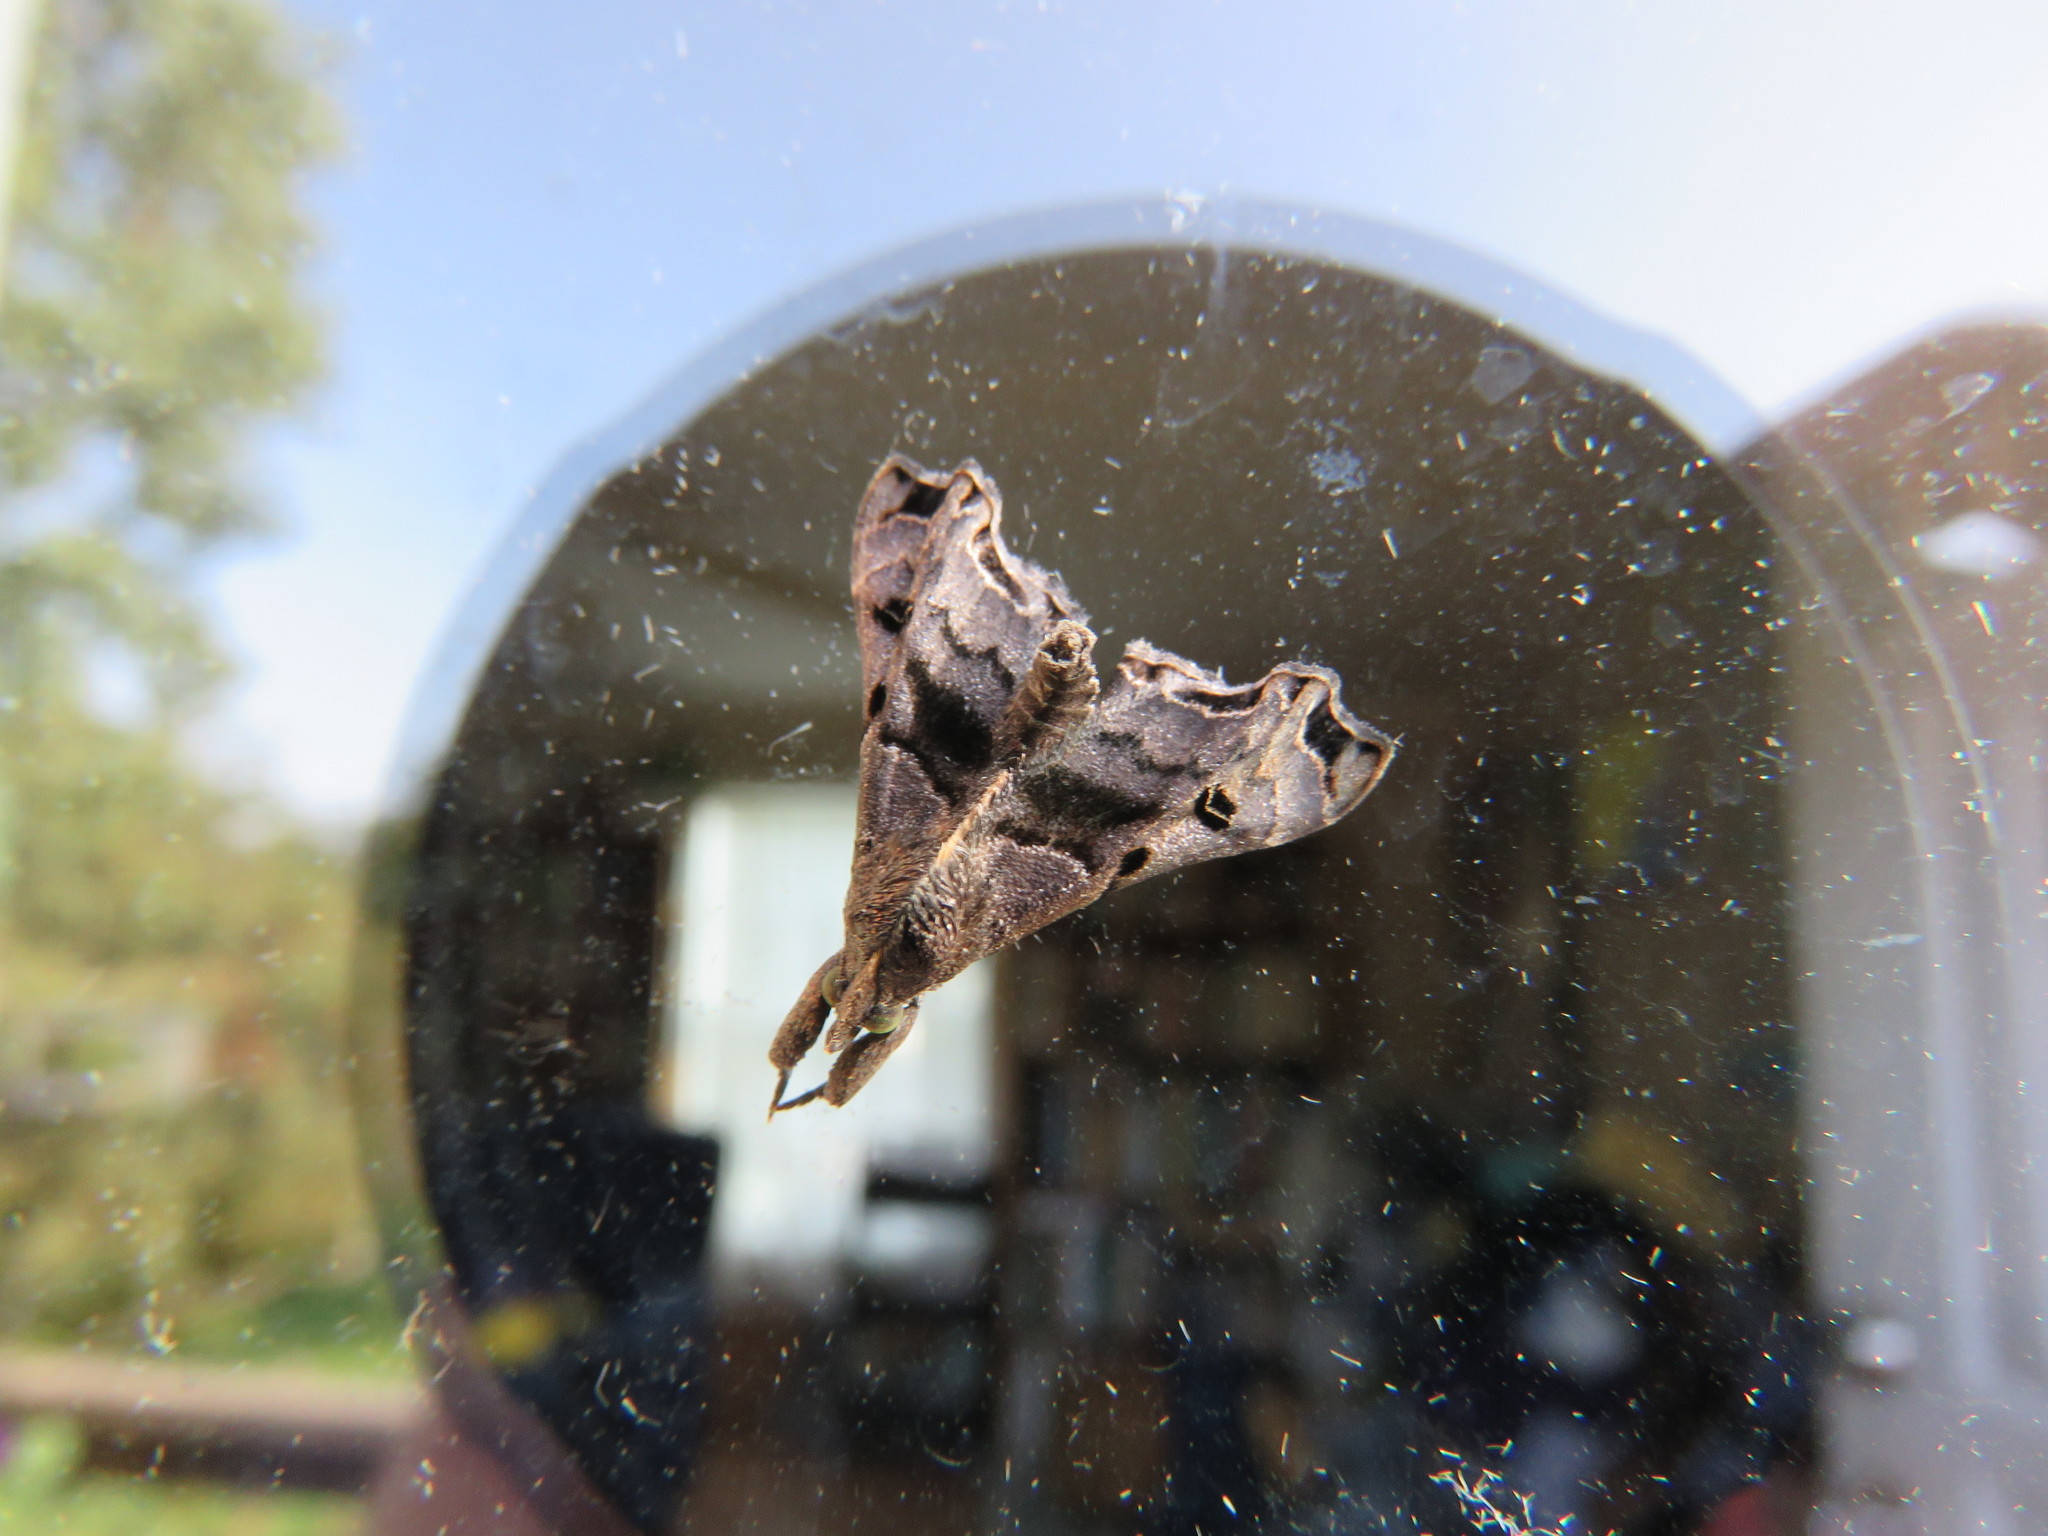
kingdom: Animalia
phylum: Arthropoda
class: Insecta
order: Lepidoptera
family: Erebidae
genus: Palthis
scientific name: Palthis asopialis
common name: Faint-spotted palthis moth
